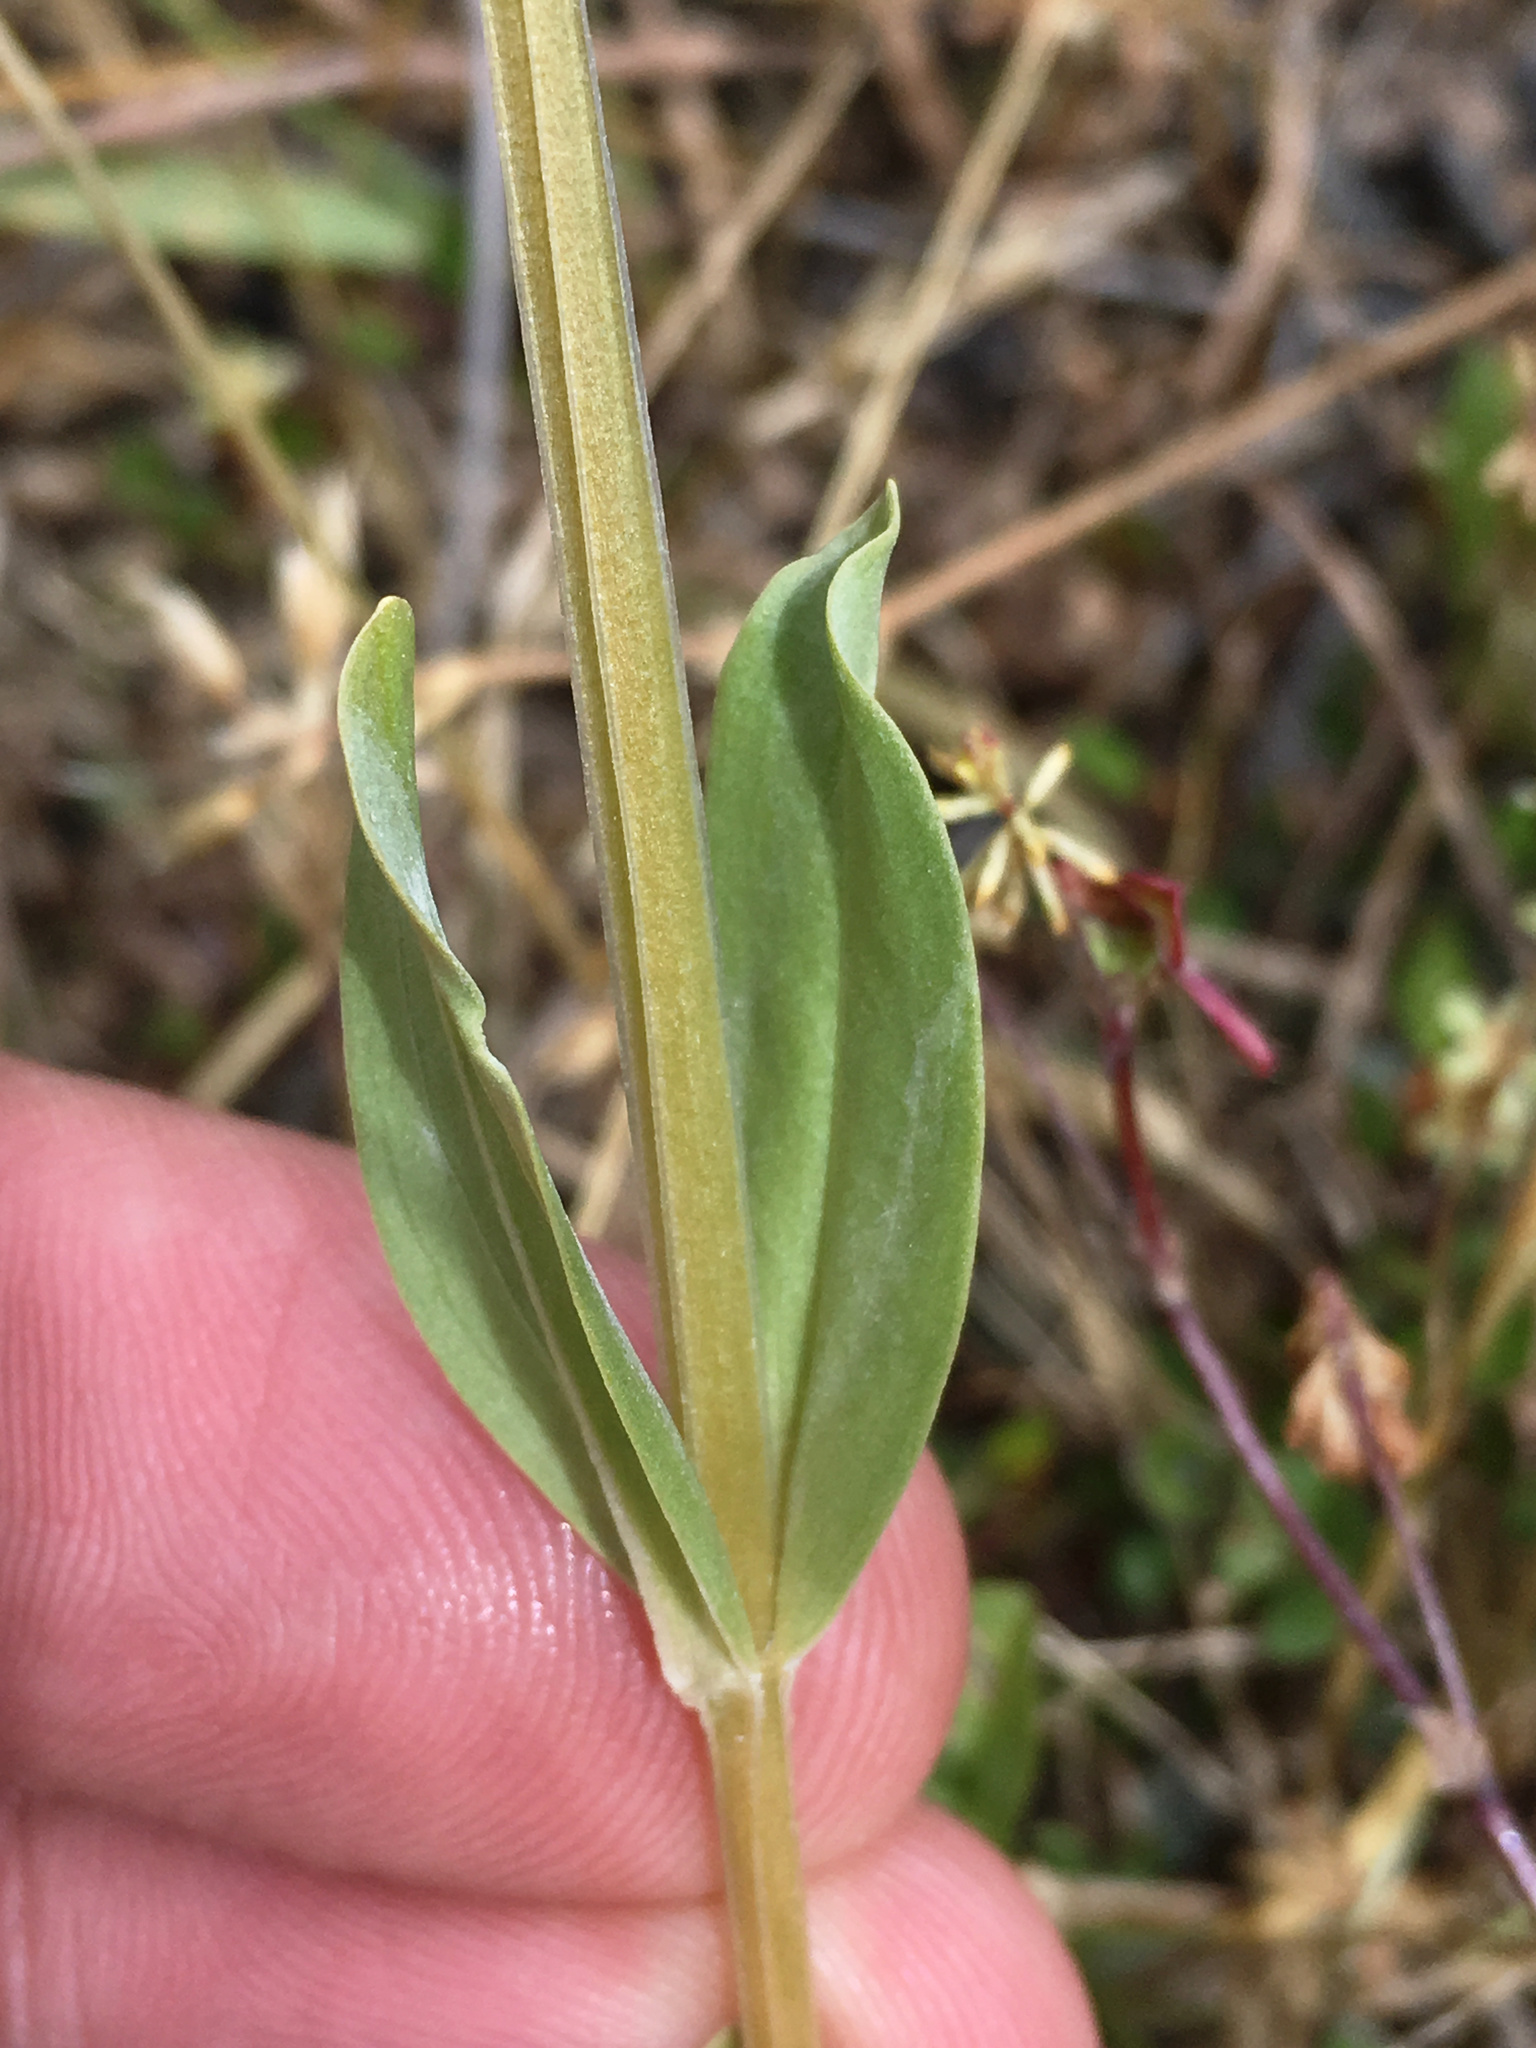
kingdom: Plantae
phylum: Tracheophyta
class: Magnoliopsida
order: Gentianales
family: Gentianaceae
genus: Centaurium
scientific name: Centaurium erythraea
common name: Common centaury
